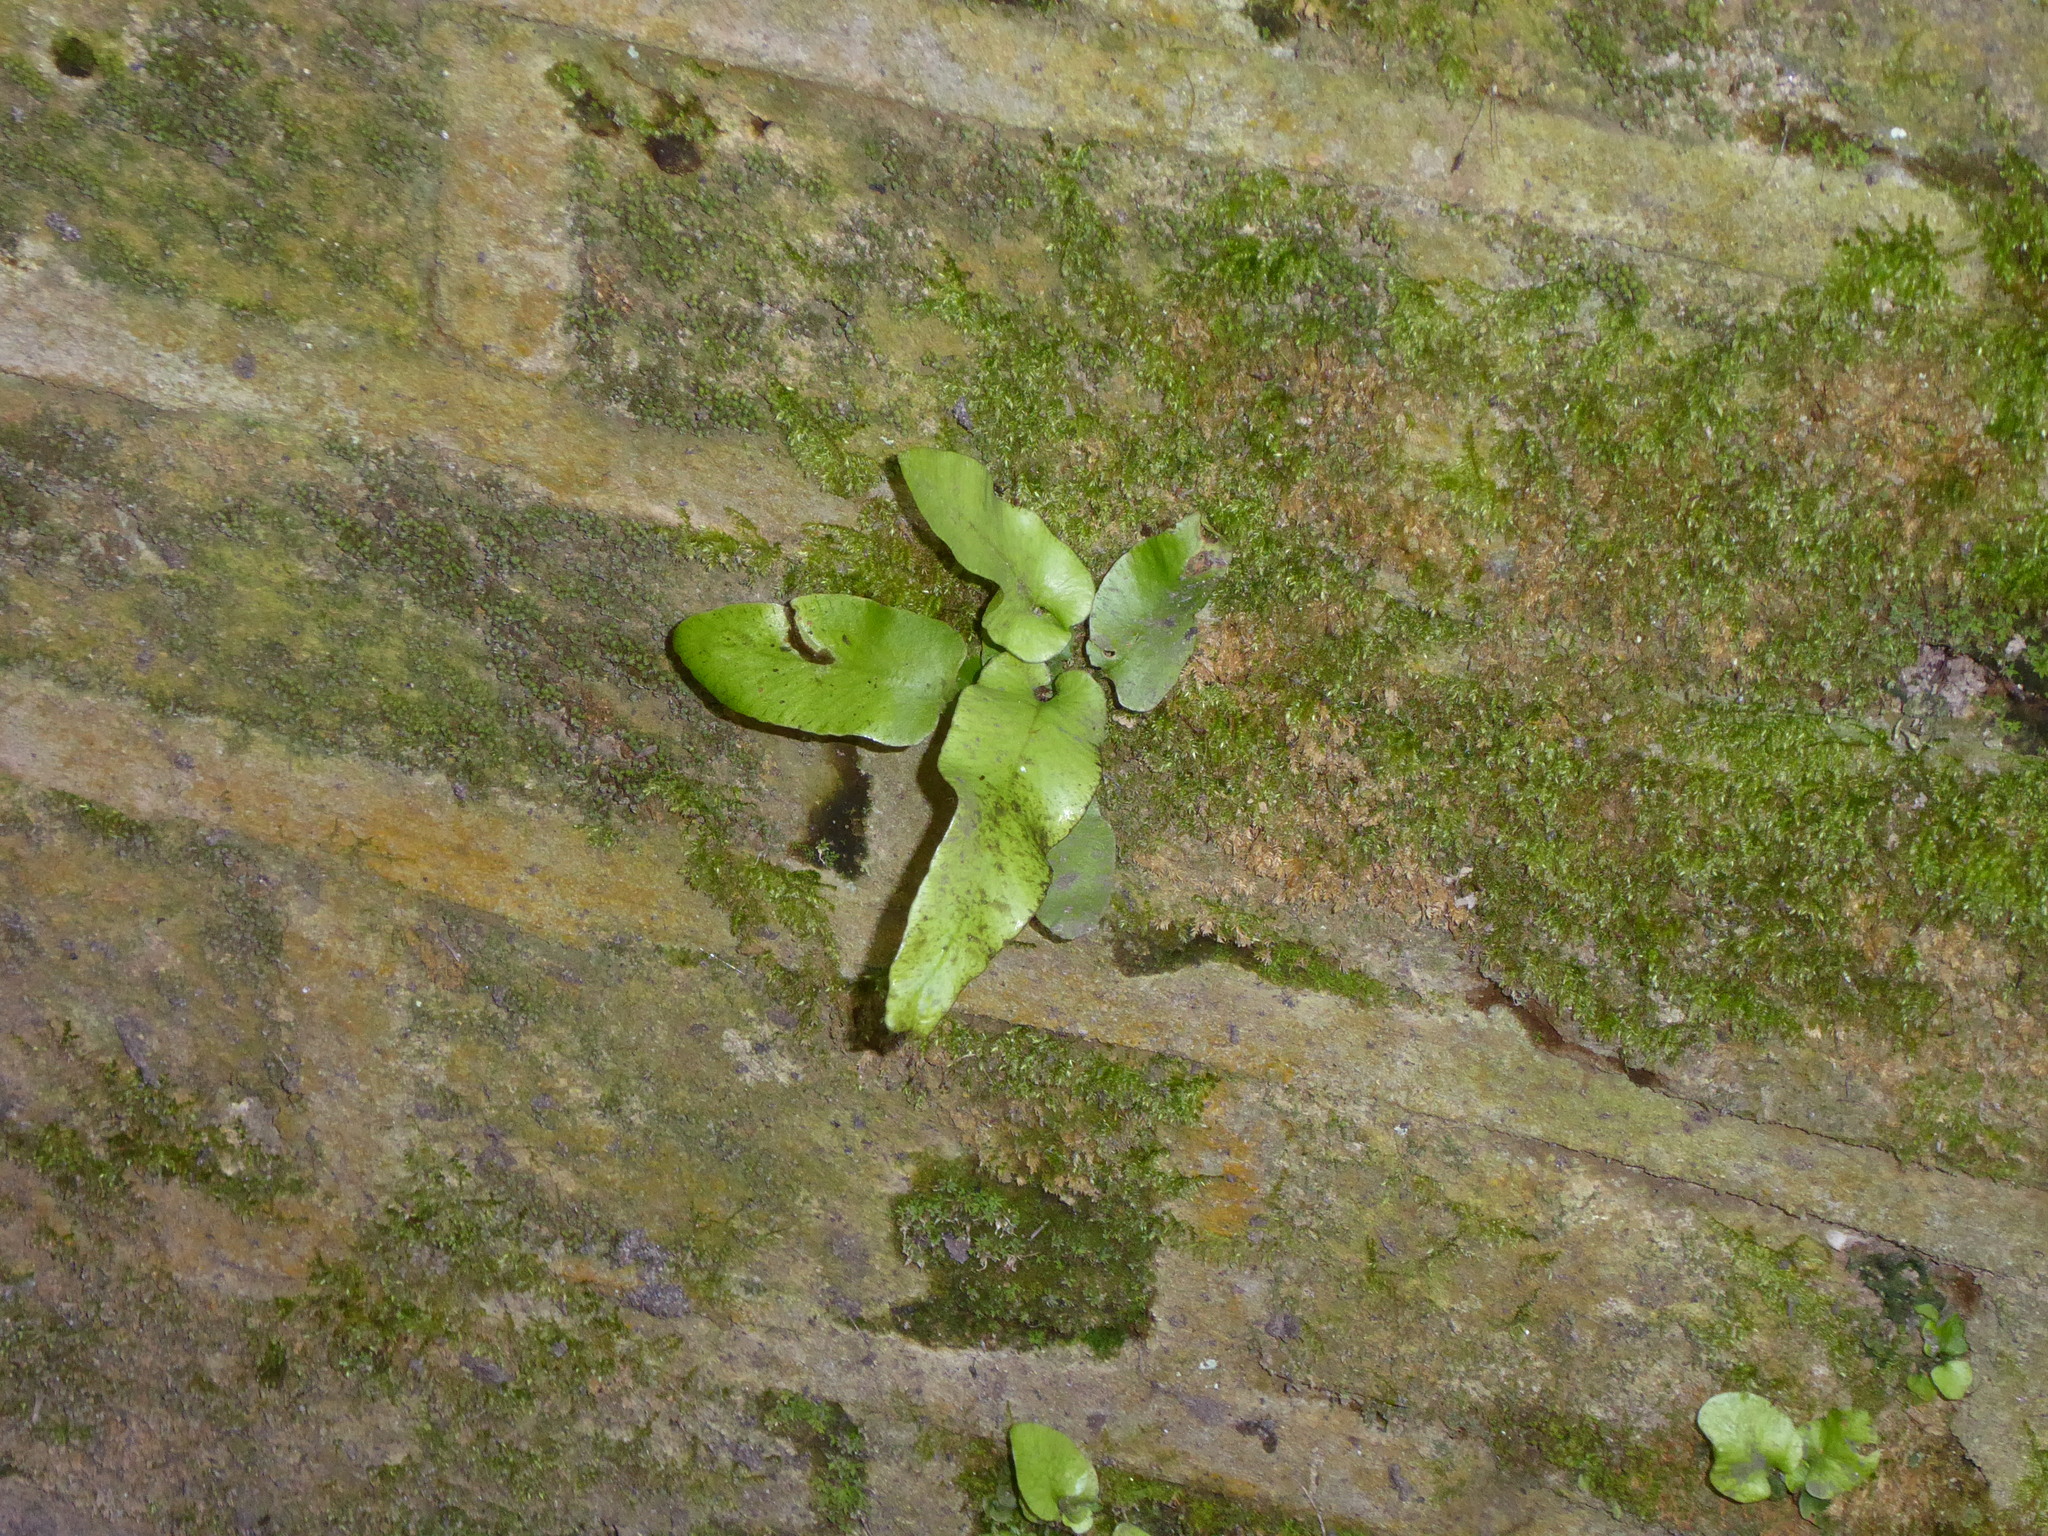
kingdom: Plantae
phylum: Tracheophyta
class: Polypodiopsida
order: Polypodiales
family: Aspleniaceae
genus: Asplenium
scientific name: Asplenium scolopendrium
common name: Hart's-tongue fern
